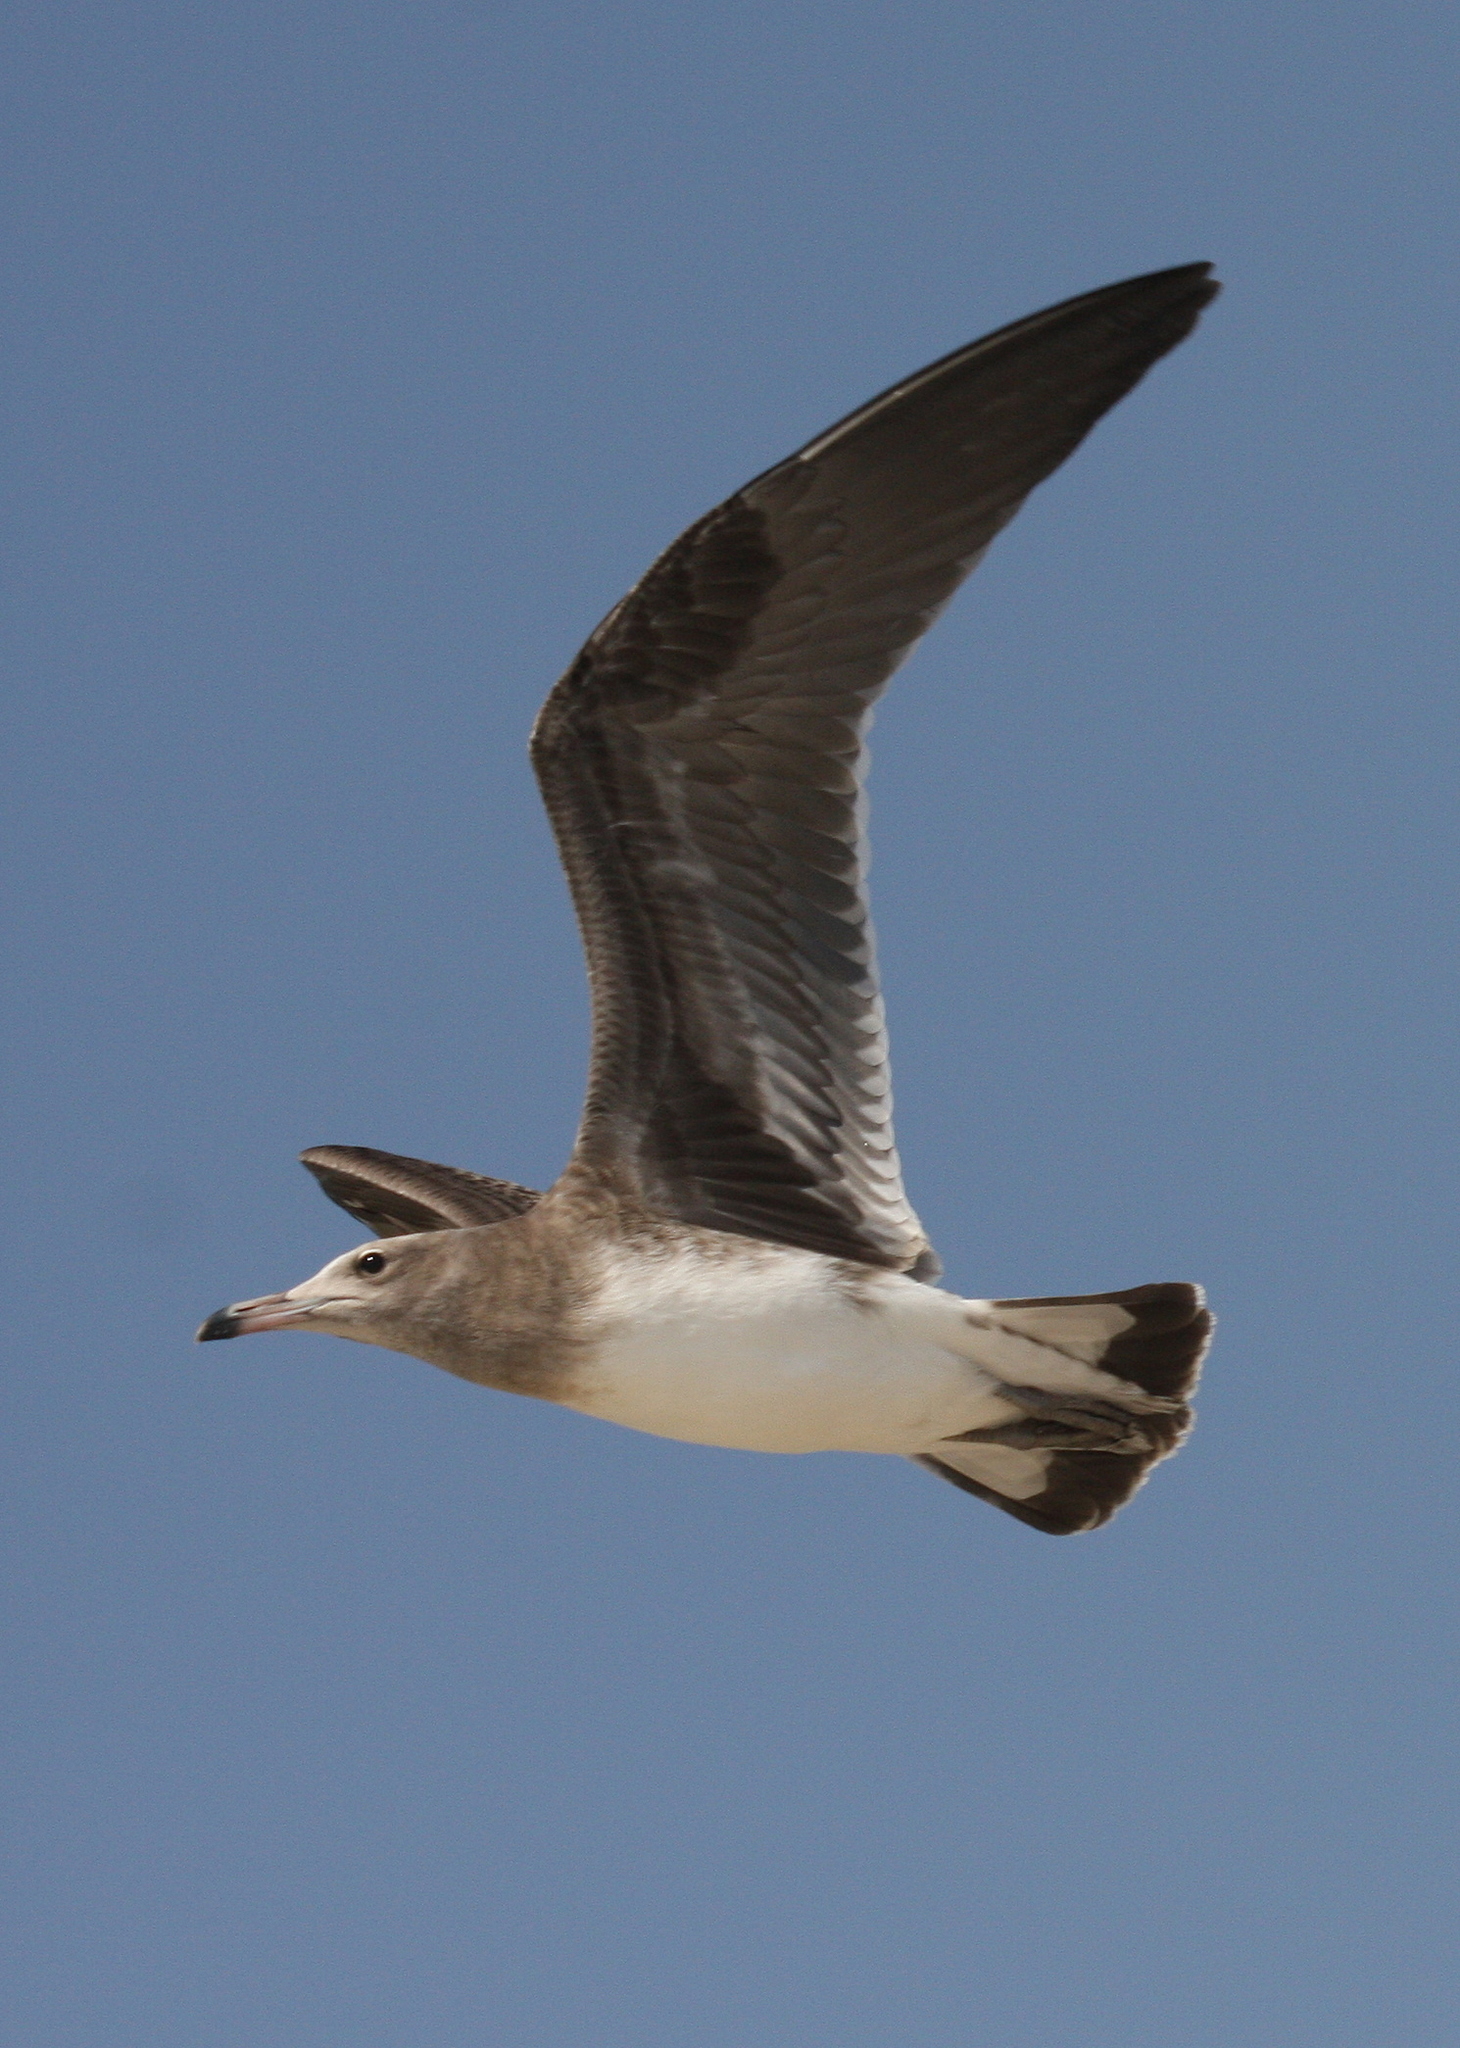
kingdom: Animalia
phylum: Chordata
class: Aves
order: Charadriiformes
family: Laridae
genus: Ichthyaetus
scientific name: Ichthyaetus hemprichii
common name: Sooty gull
